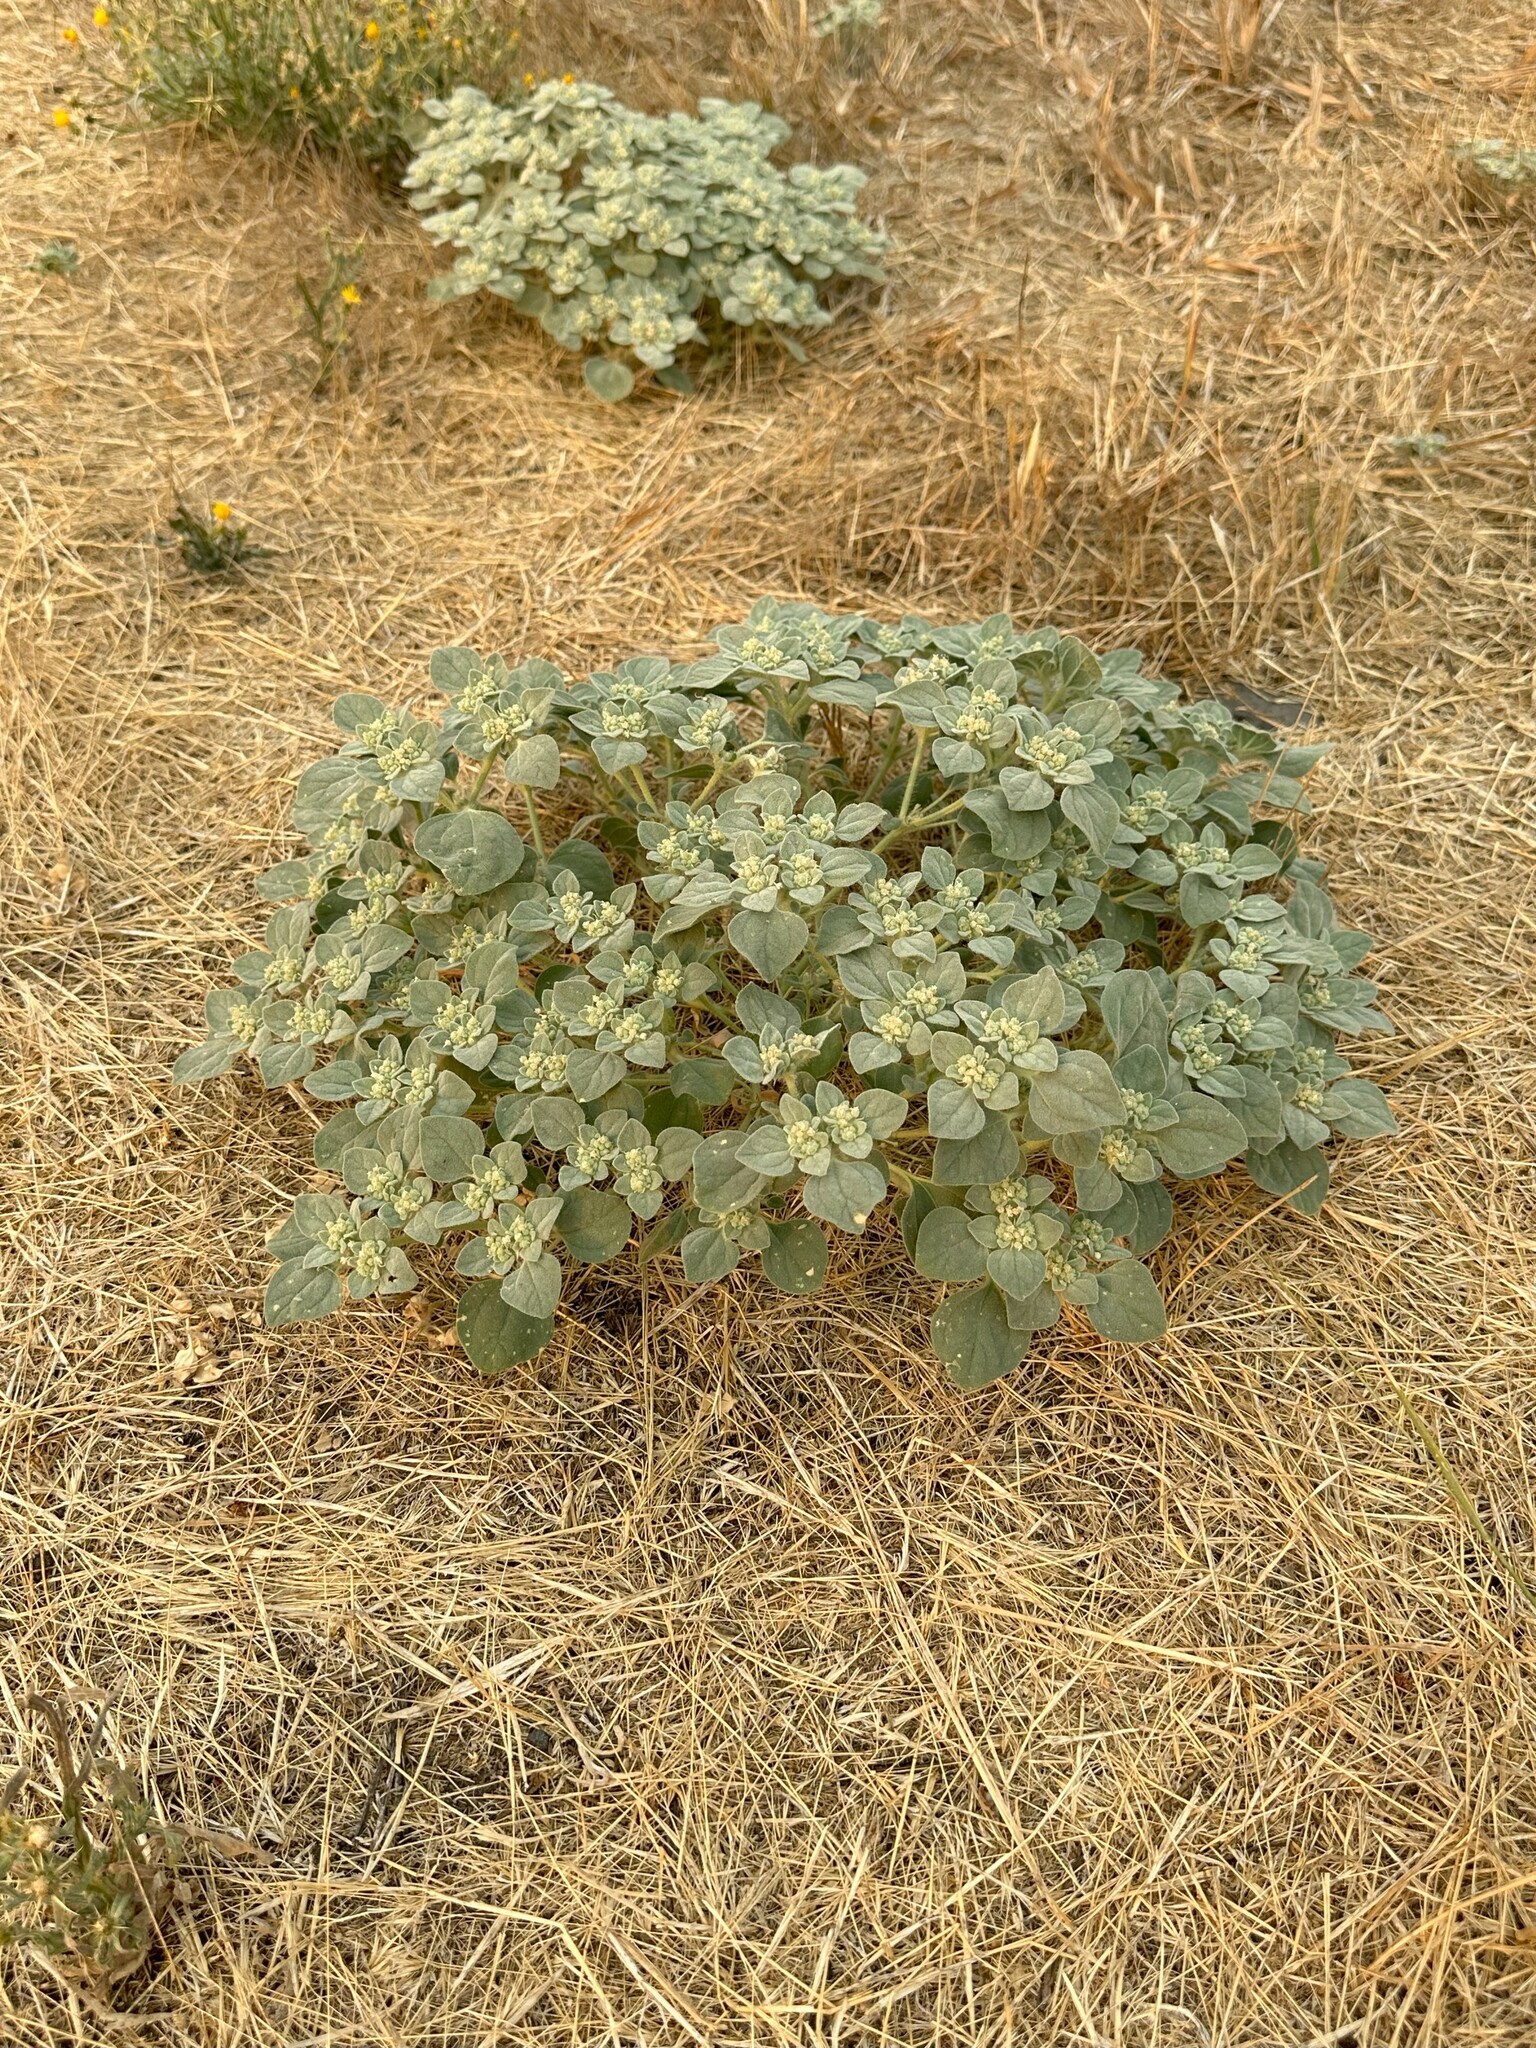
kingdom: Plantae
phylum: Tracheophyta
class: Magnoliopsida
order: Malpighiales
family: Euphorbiaceae
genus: Croton
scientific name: Croton setiger
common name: Dove weed
